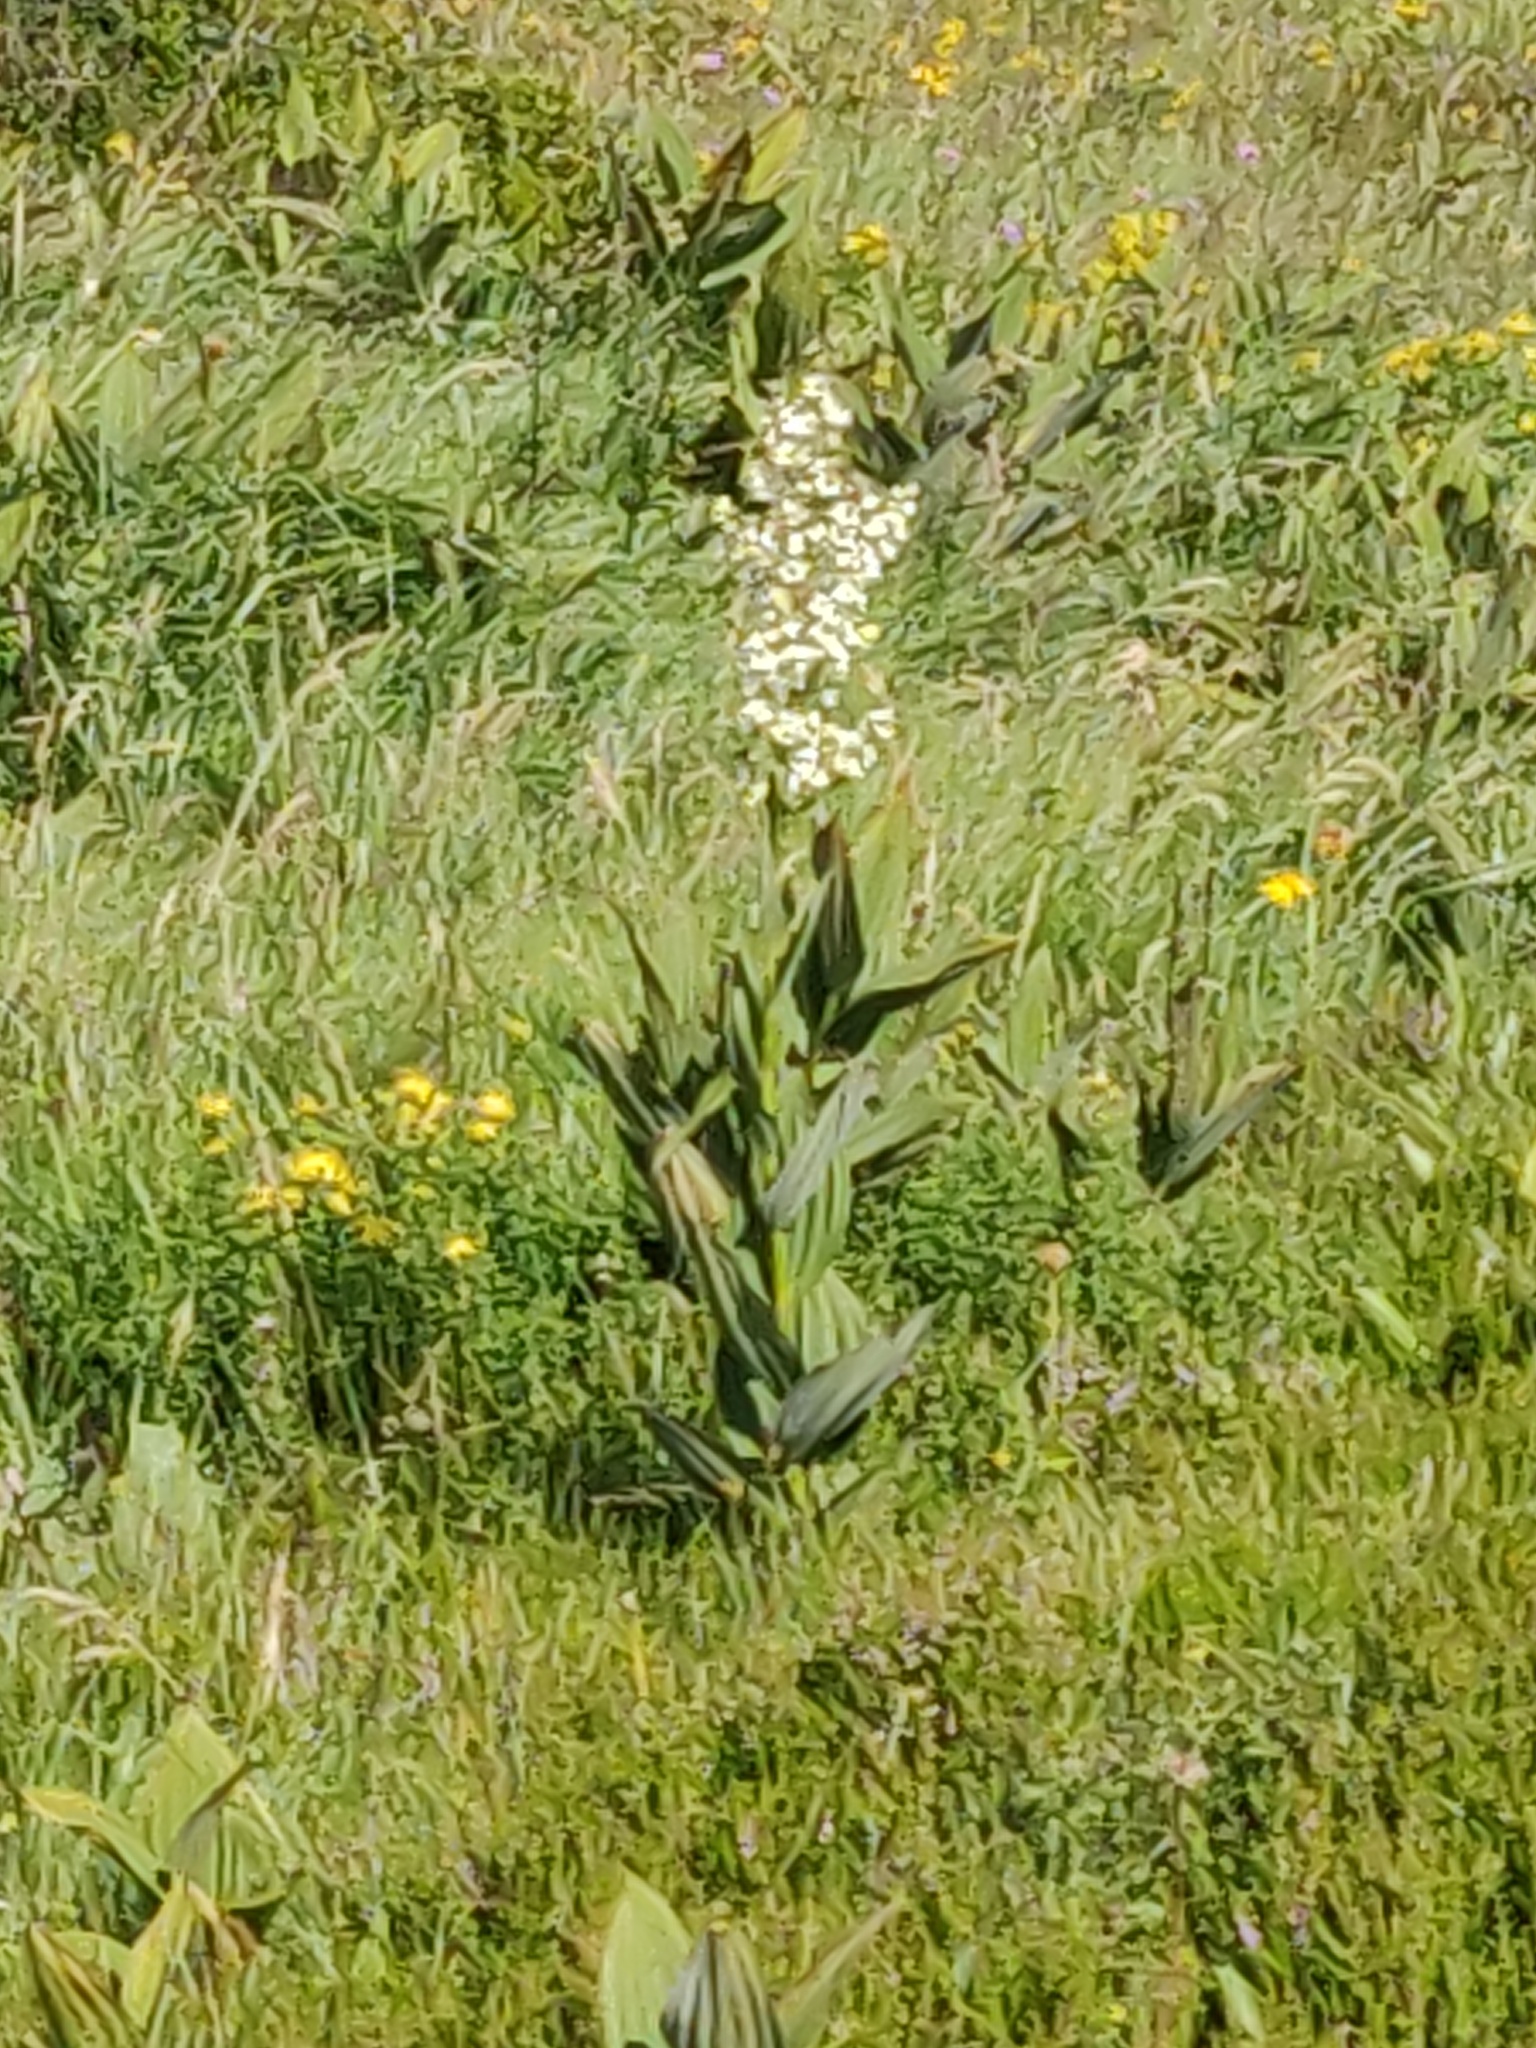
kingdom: Plantae
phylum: Tracheophyta
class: Liliopsida
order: Liliales
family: Melanthiaceae
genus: Veratrum
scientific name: Veratrum album
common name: White veratrum
